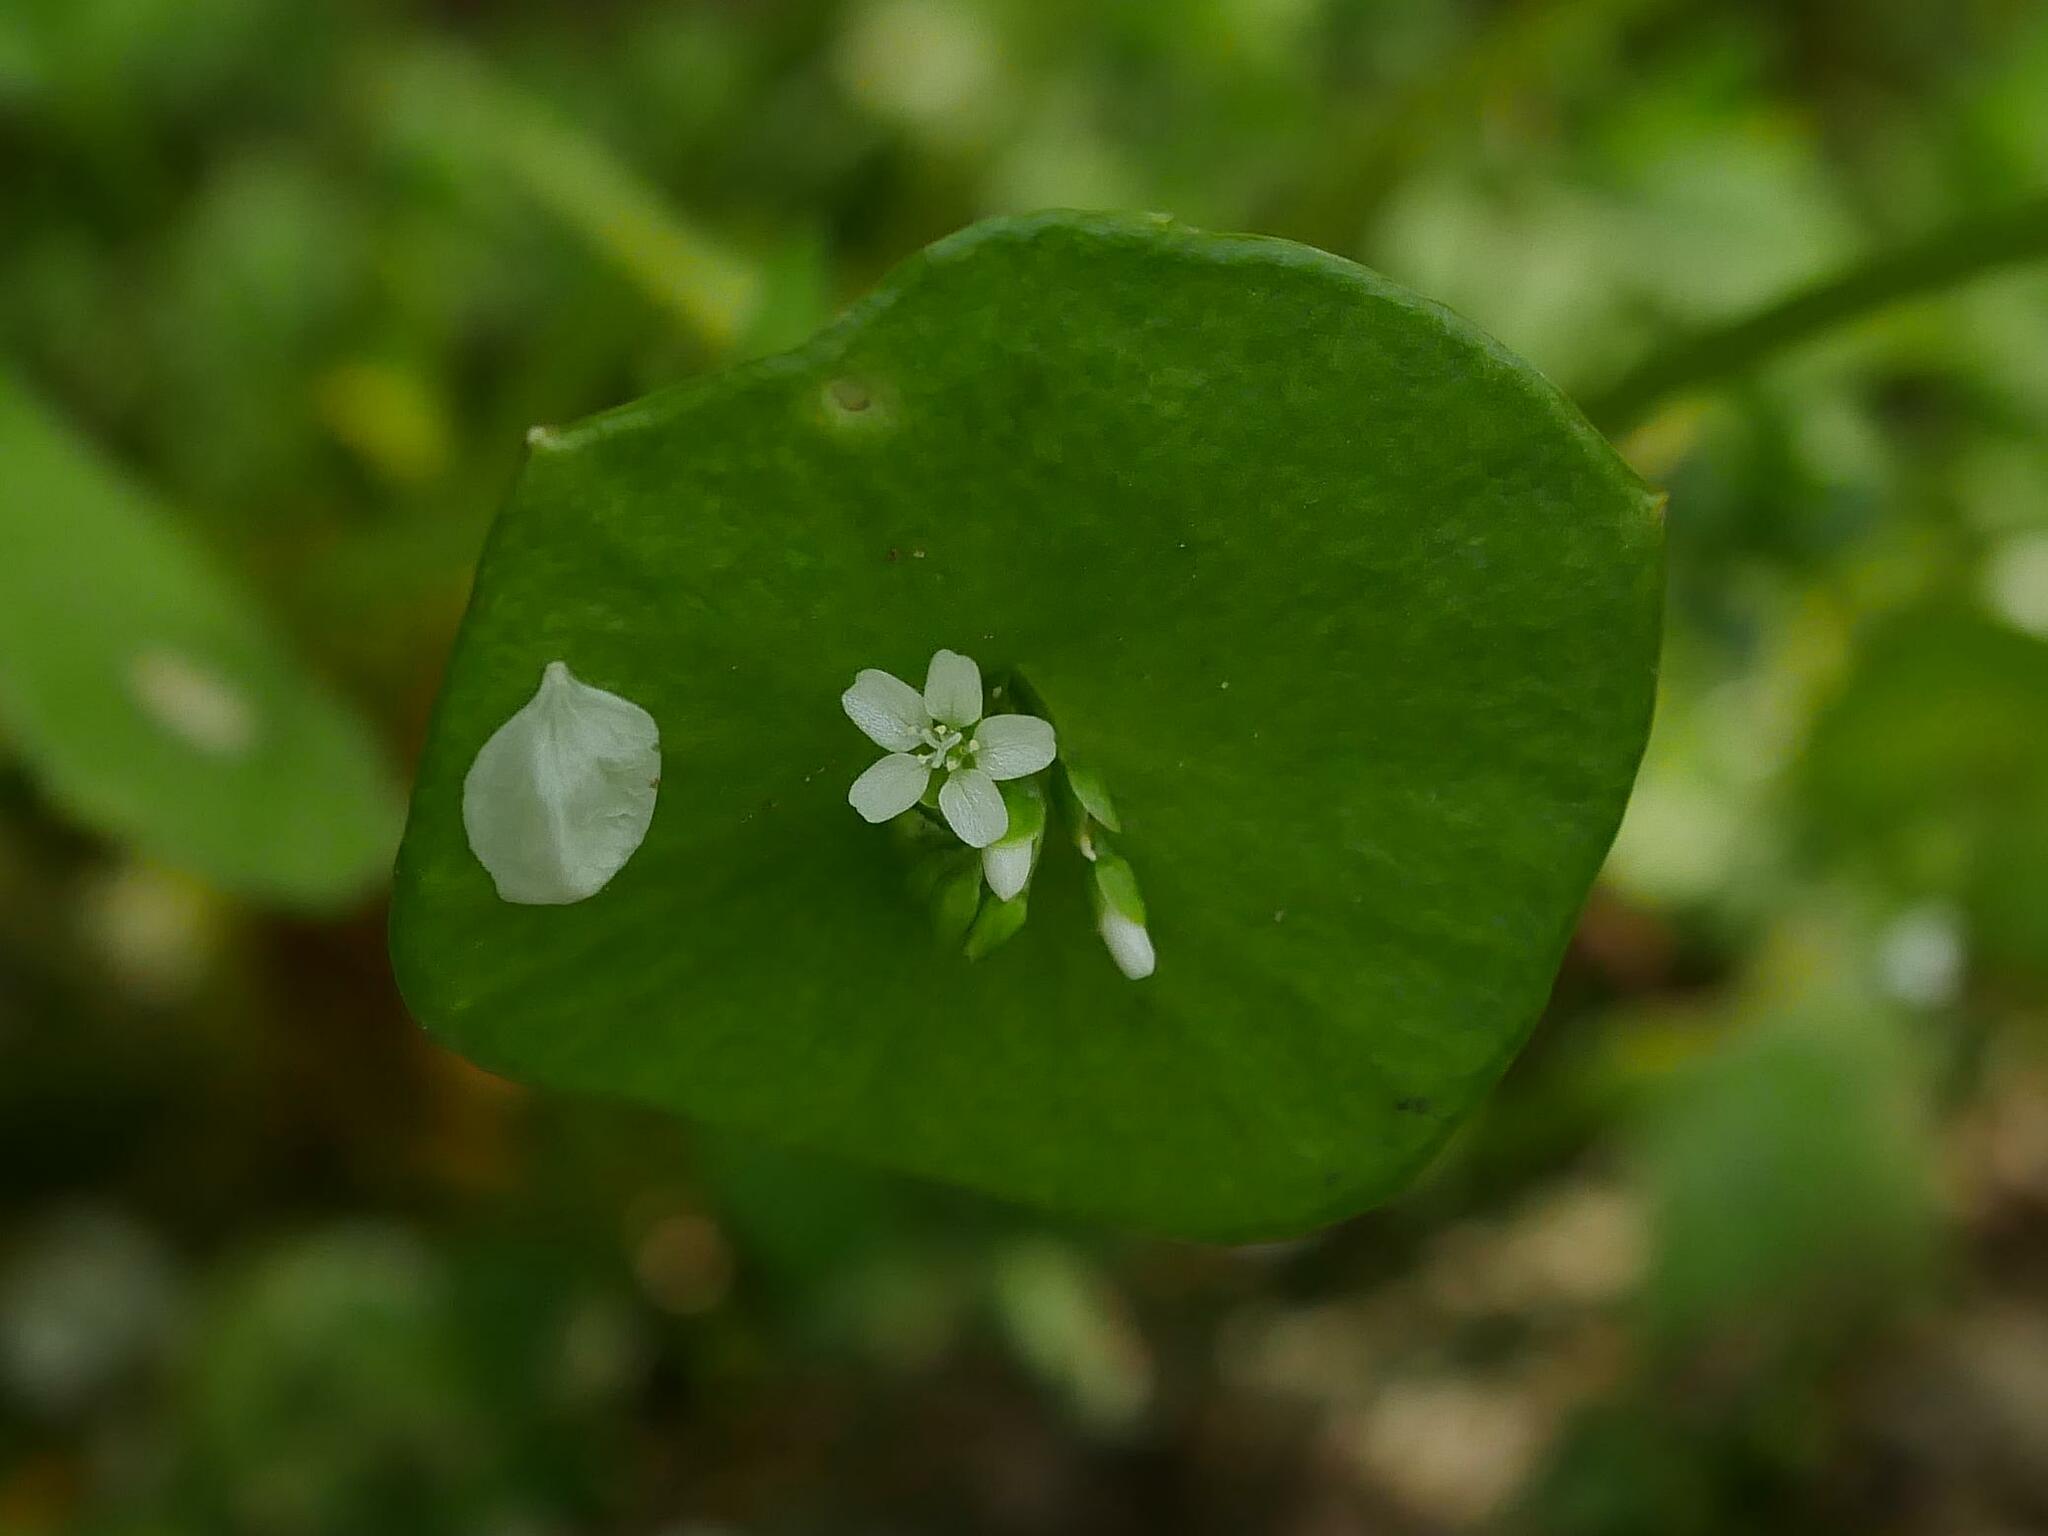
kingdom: Plantae
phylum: Tracheophyta
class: Magnoliopsida
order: Caryophyllales
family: Montiaceae
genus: Claytonia
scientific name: Claytonia perfoliata
